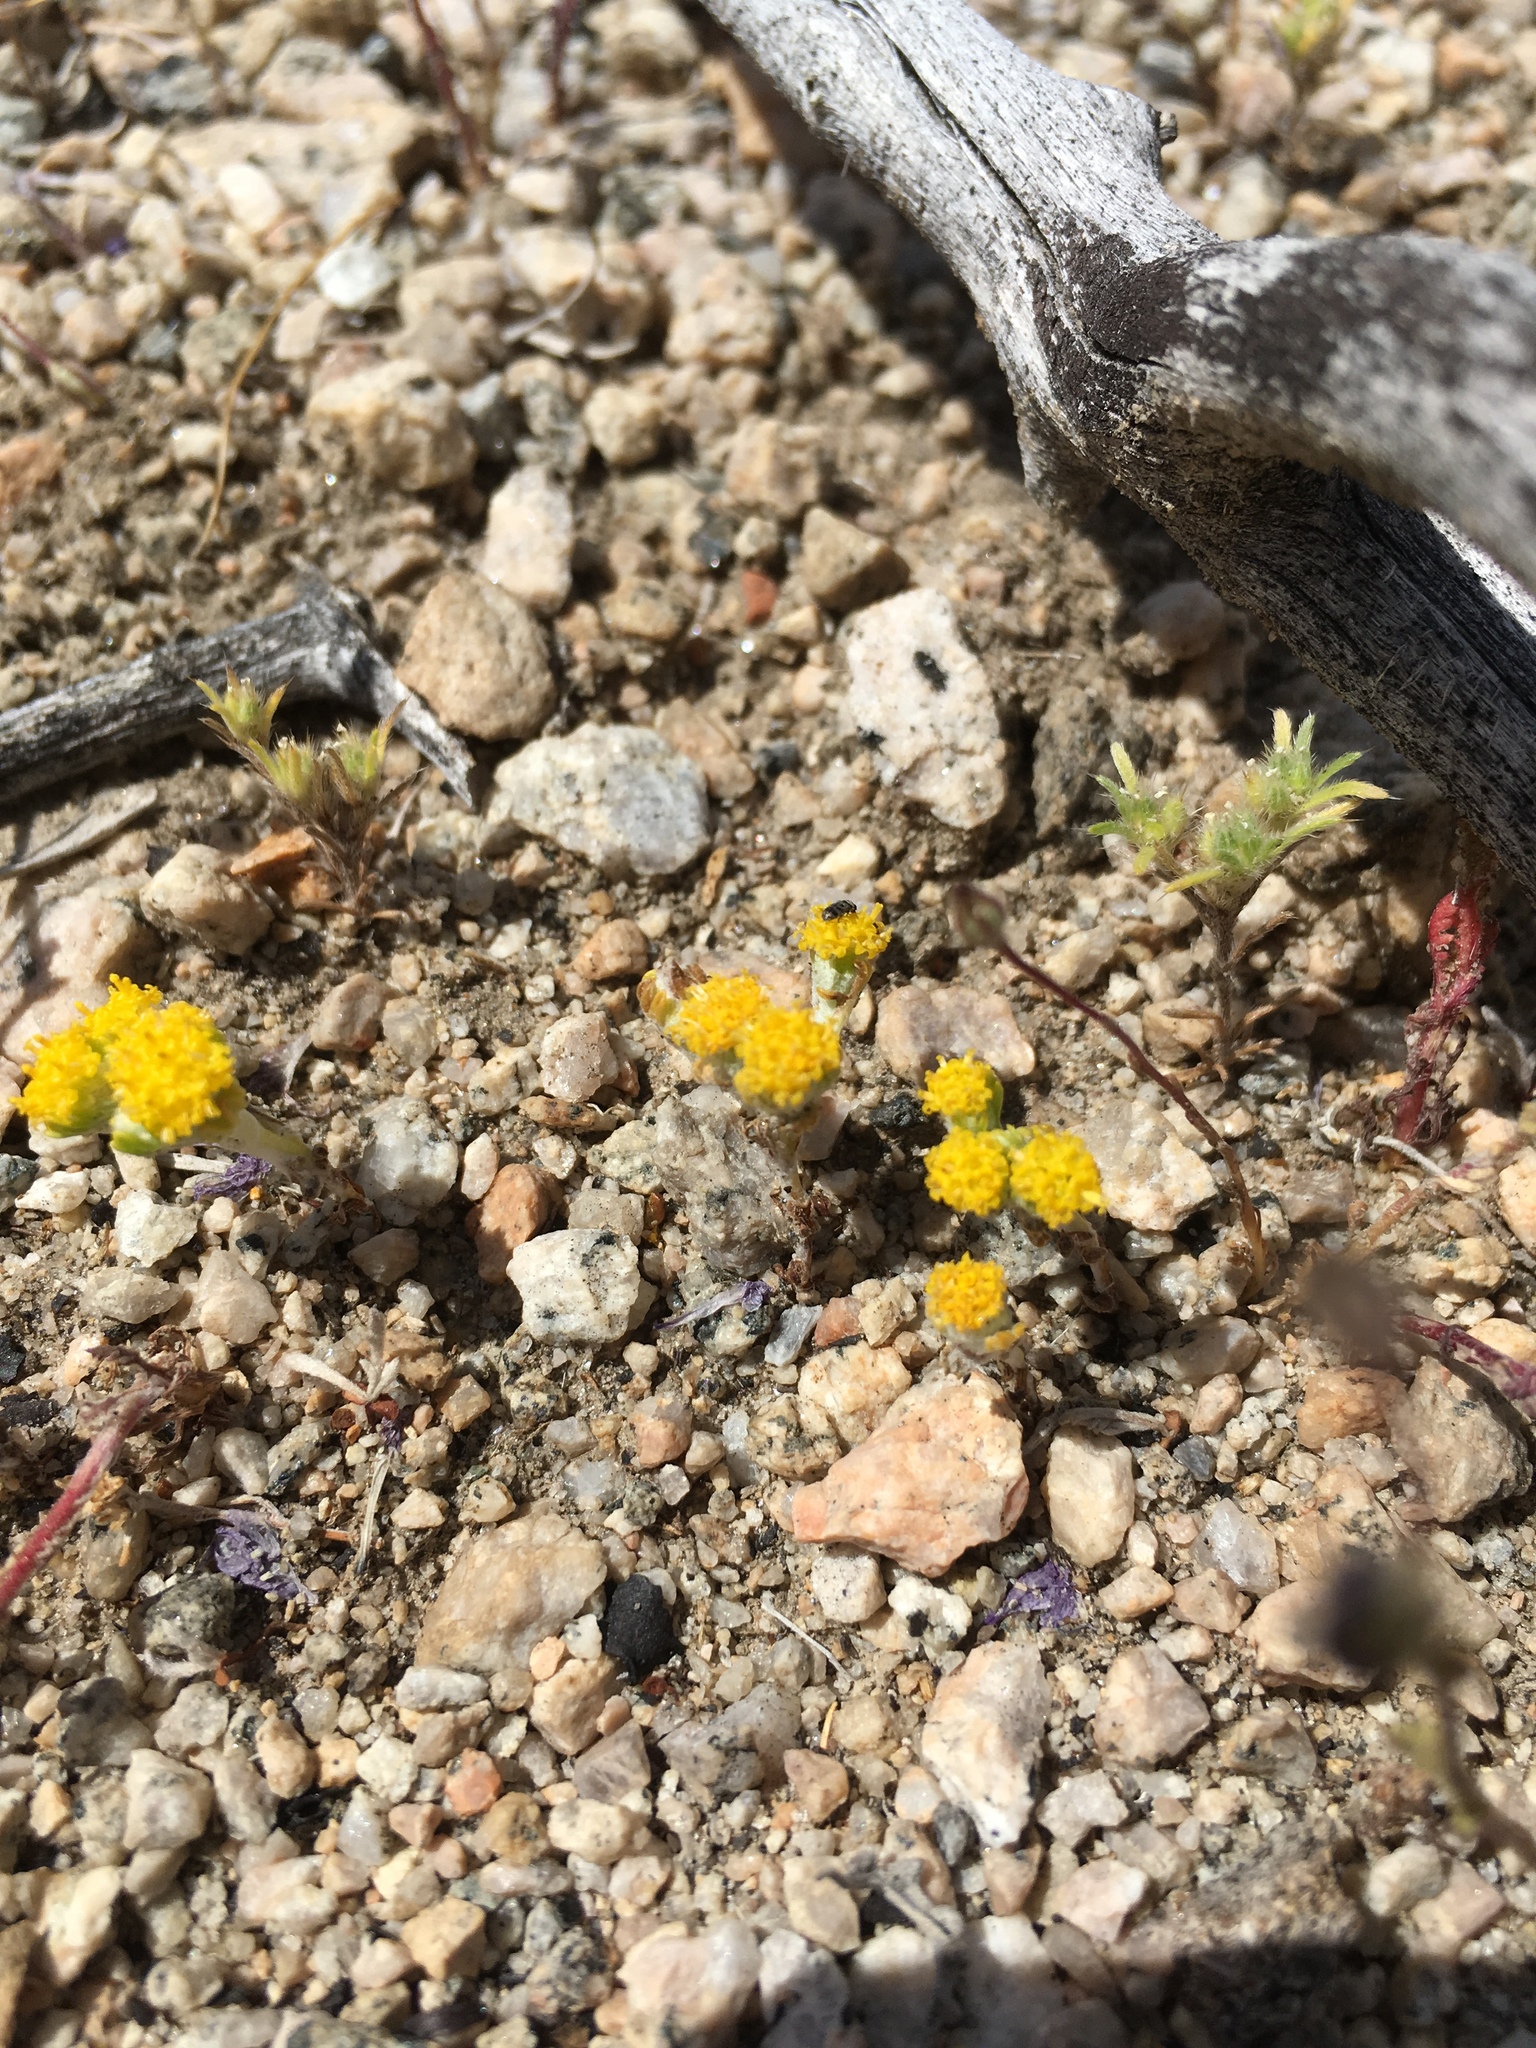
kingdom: Plantae
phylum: Tracheophyta
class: Magnoliopsida
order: Asterales
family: Asteraceae
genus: Eriophyllum
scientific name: Eriophyllum pringlei
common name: Pringle's woolly-sunflower
